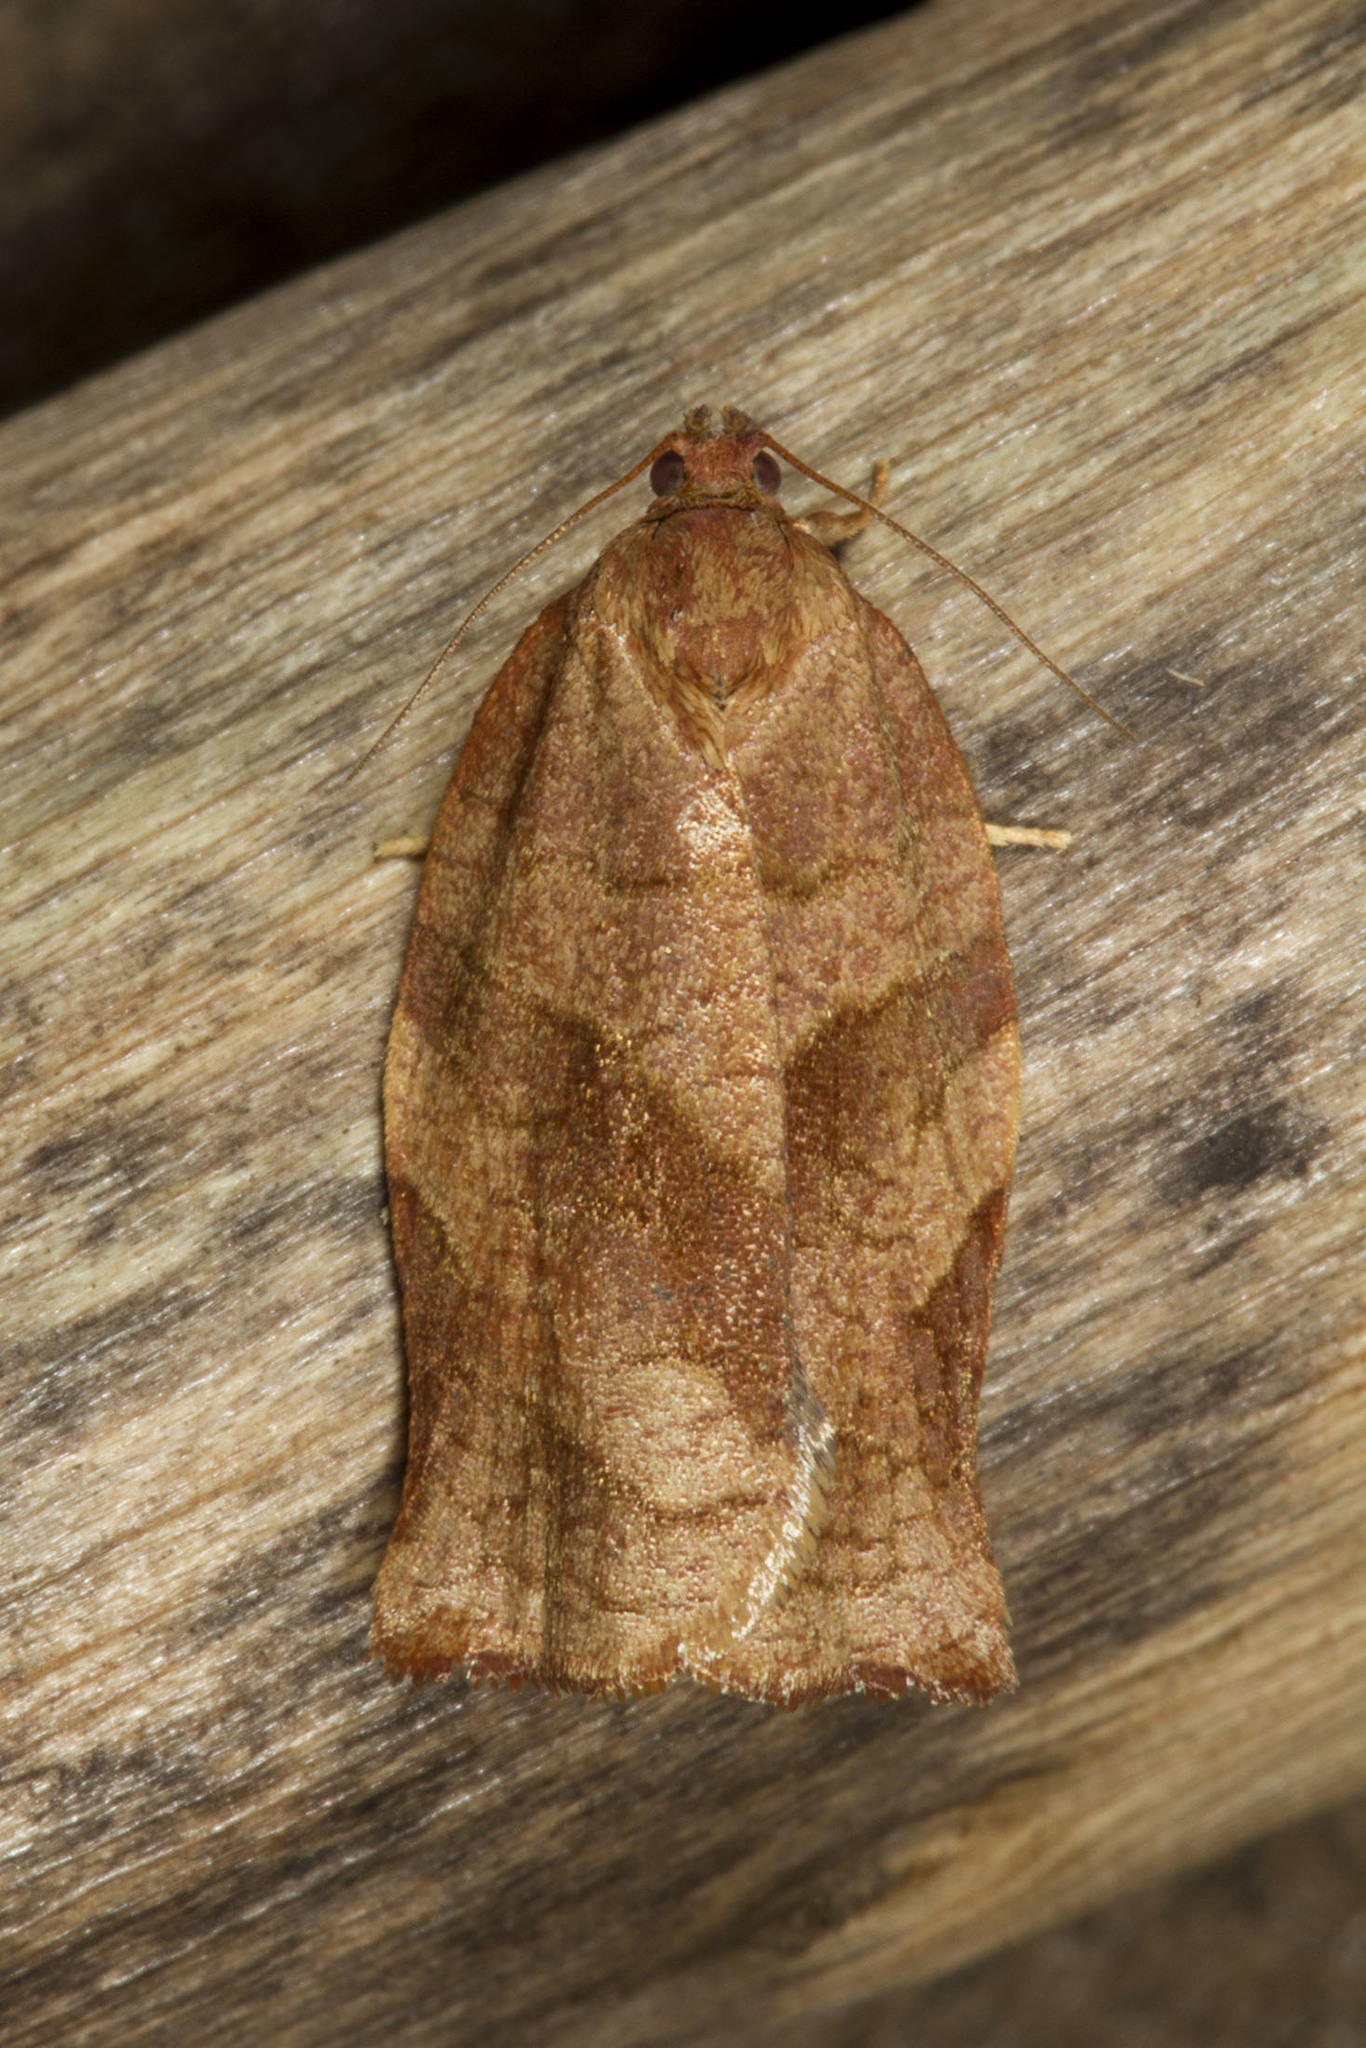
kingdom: Animalia
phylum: Arthropoda
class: Insecta
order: Lepidoptera
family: Tortricidae
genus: Choristoneura
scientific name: Choristoneura rosaceana
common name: Oblique-banded leafroller moth
